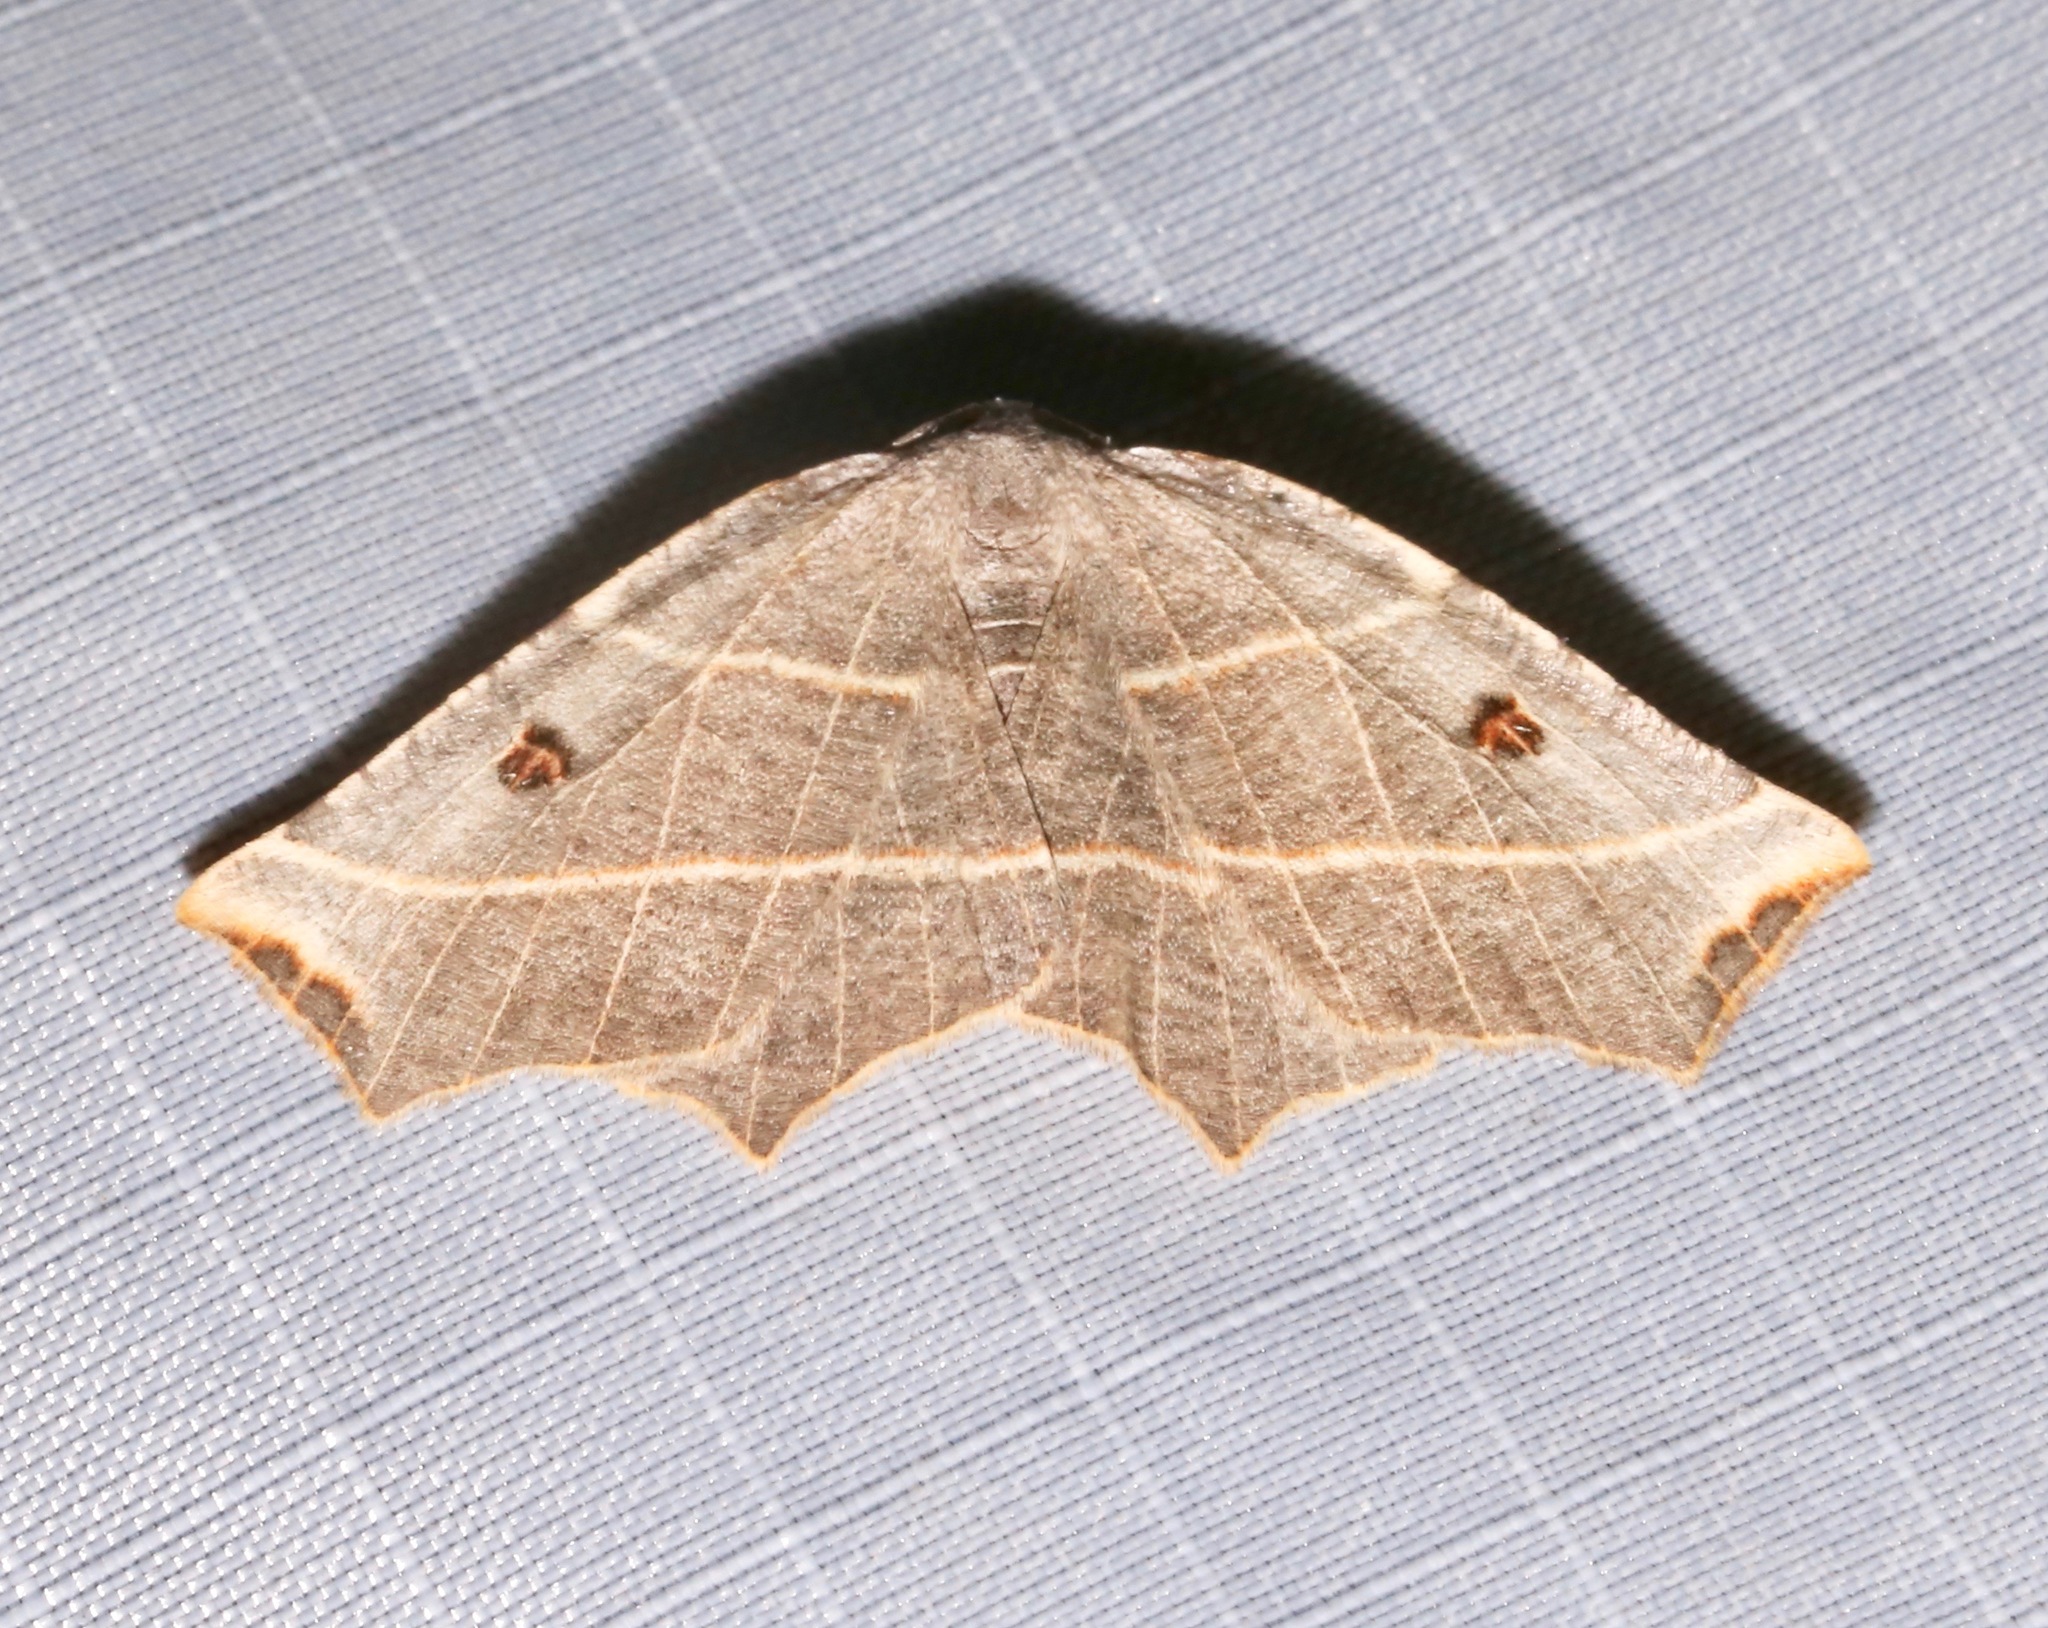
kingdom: Animalia
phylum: Arthropoda
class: Insecta
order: Lepidoptera
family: Geometridae
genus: Metanema
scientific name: Metanema inatomaria
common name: Pale metanema
